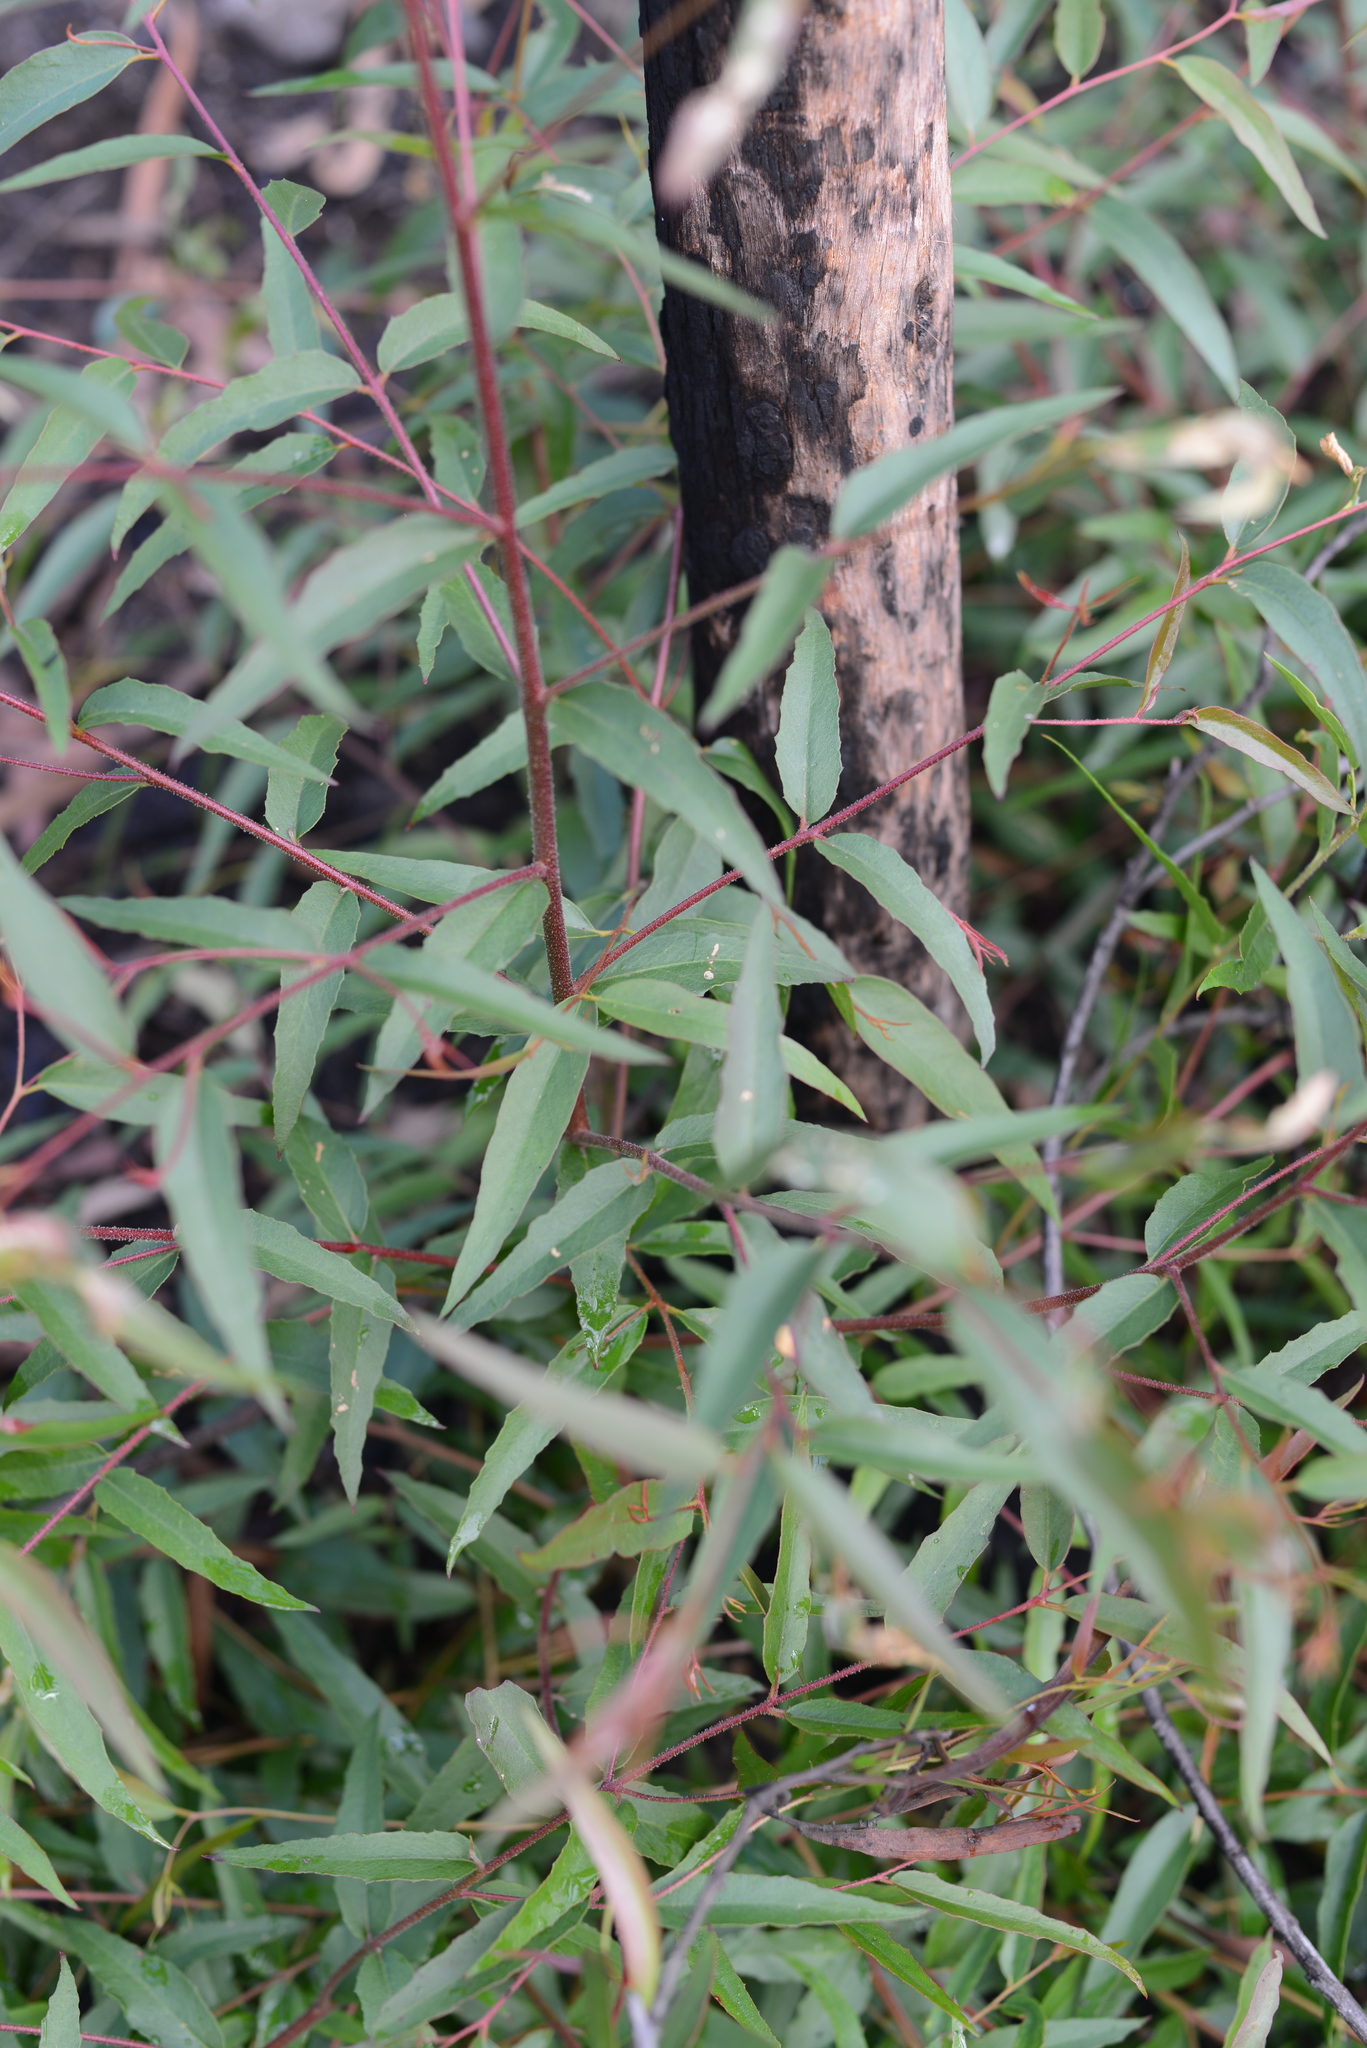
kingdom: Plantae
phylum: Tracheophyta
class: Magnoliopsida
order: Myrtales
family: Myrtaceae
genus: Eucalyptus
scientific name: Eucalyptus piperita
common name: Sydney peppermint
